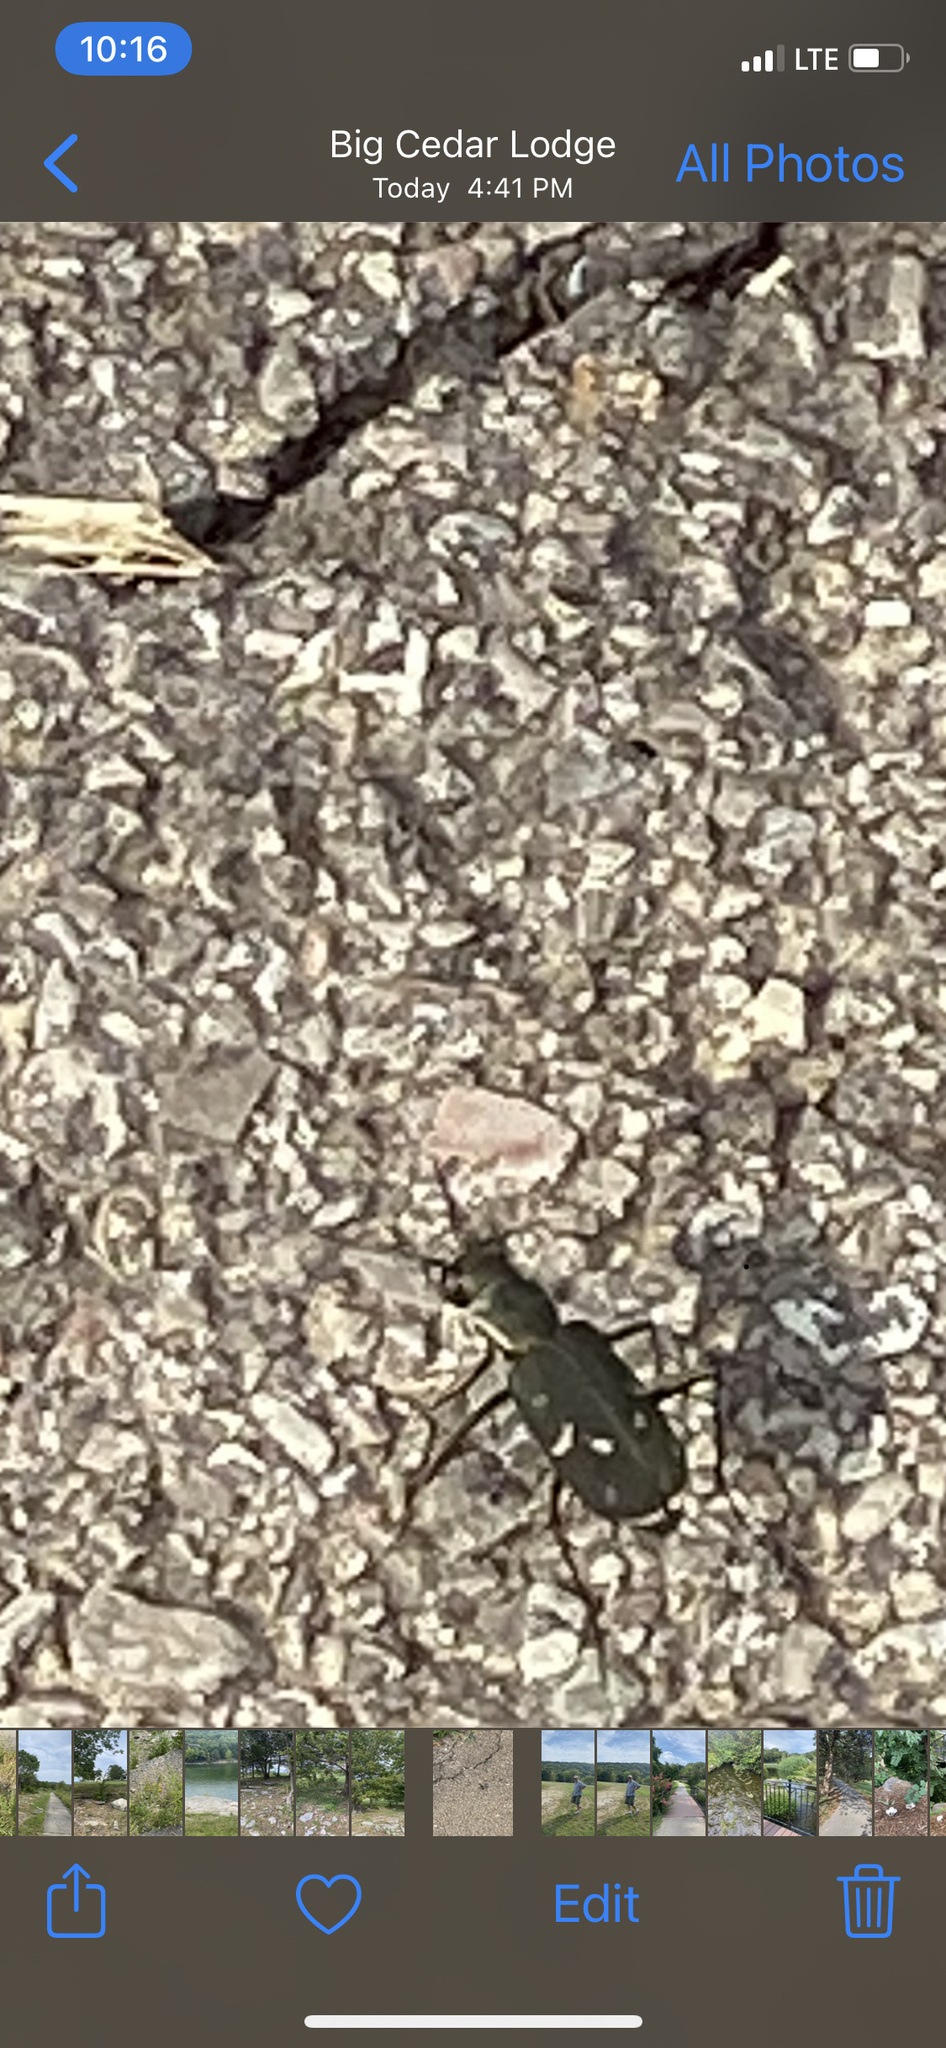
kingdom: Animalia
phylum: Arthropoda
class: Insecta
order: Coleoptera
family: Carabidae
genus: Cicindela
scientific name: Cicindela obsoleta
